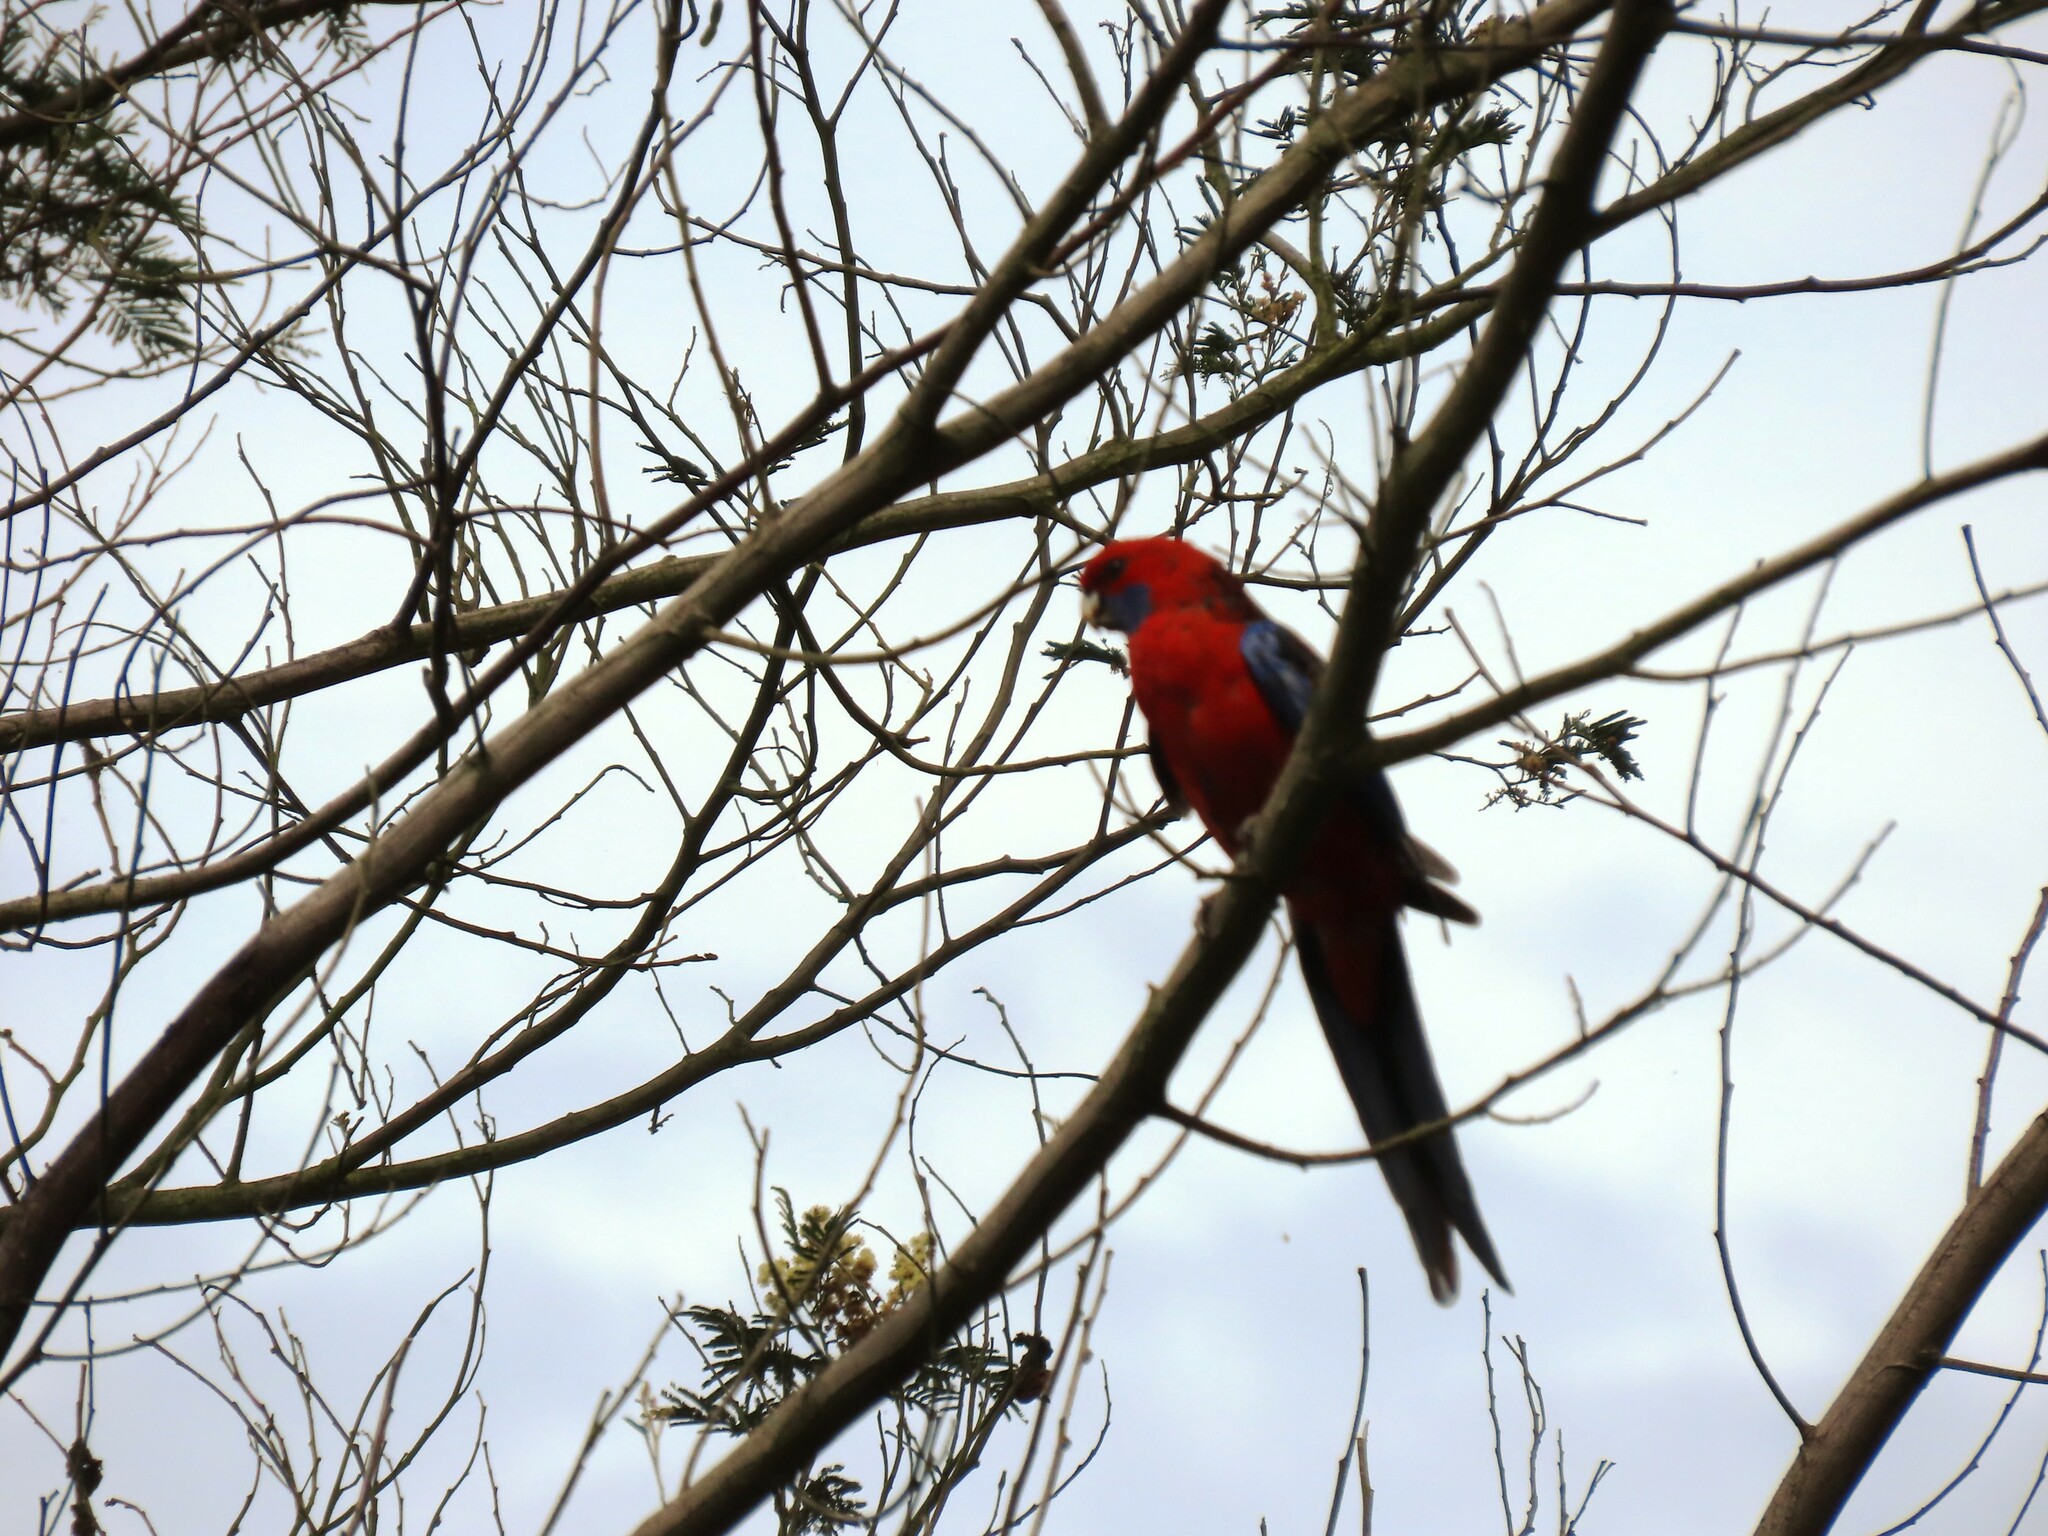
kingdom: Animalia
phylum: Chordata
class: Aves
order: Psittaciformes
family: Psittacidae
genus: Platycercus
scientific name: Platycercus elegans
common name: Crimson rosella
